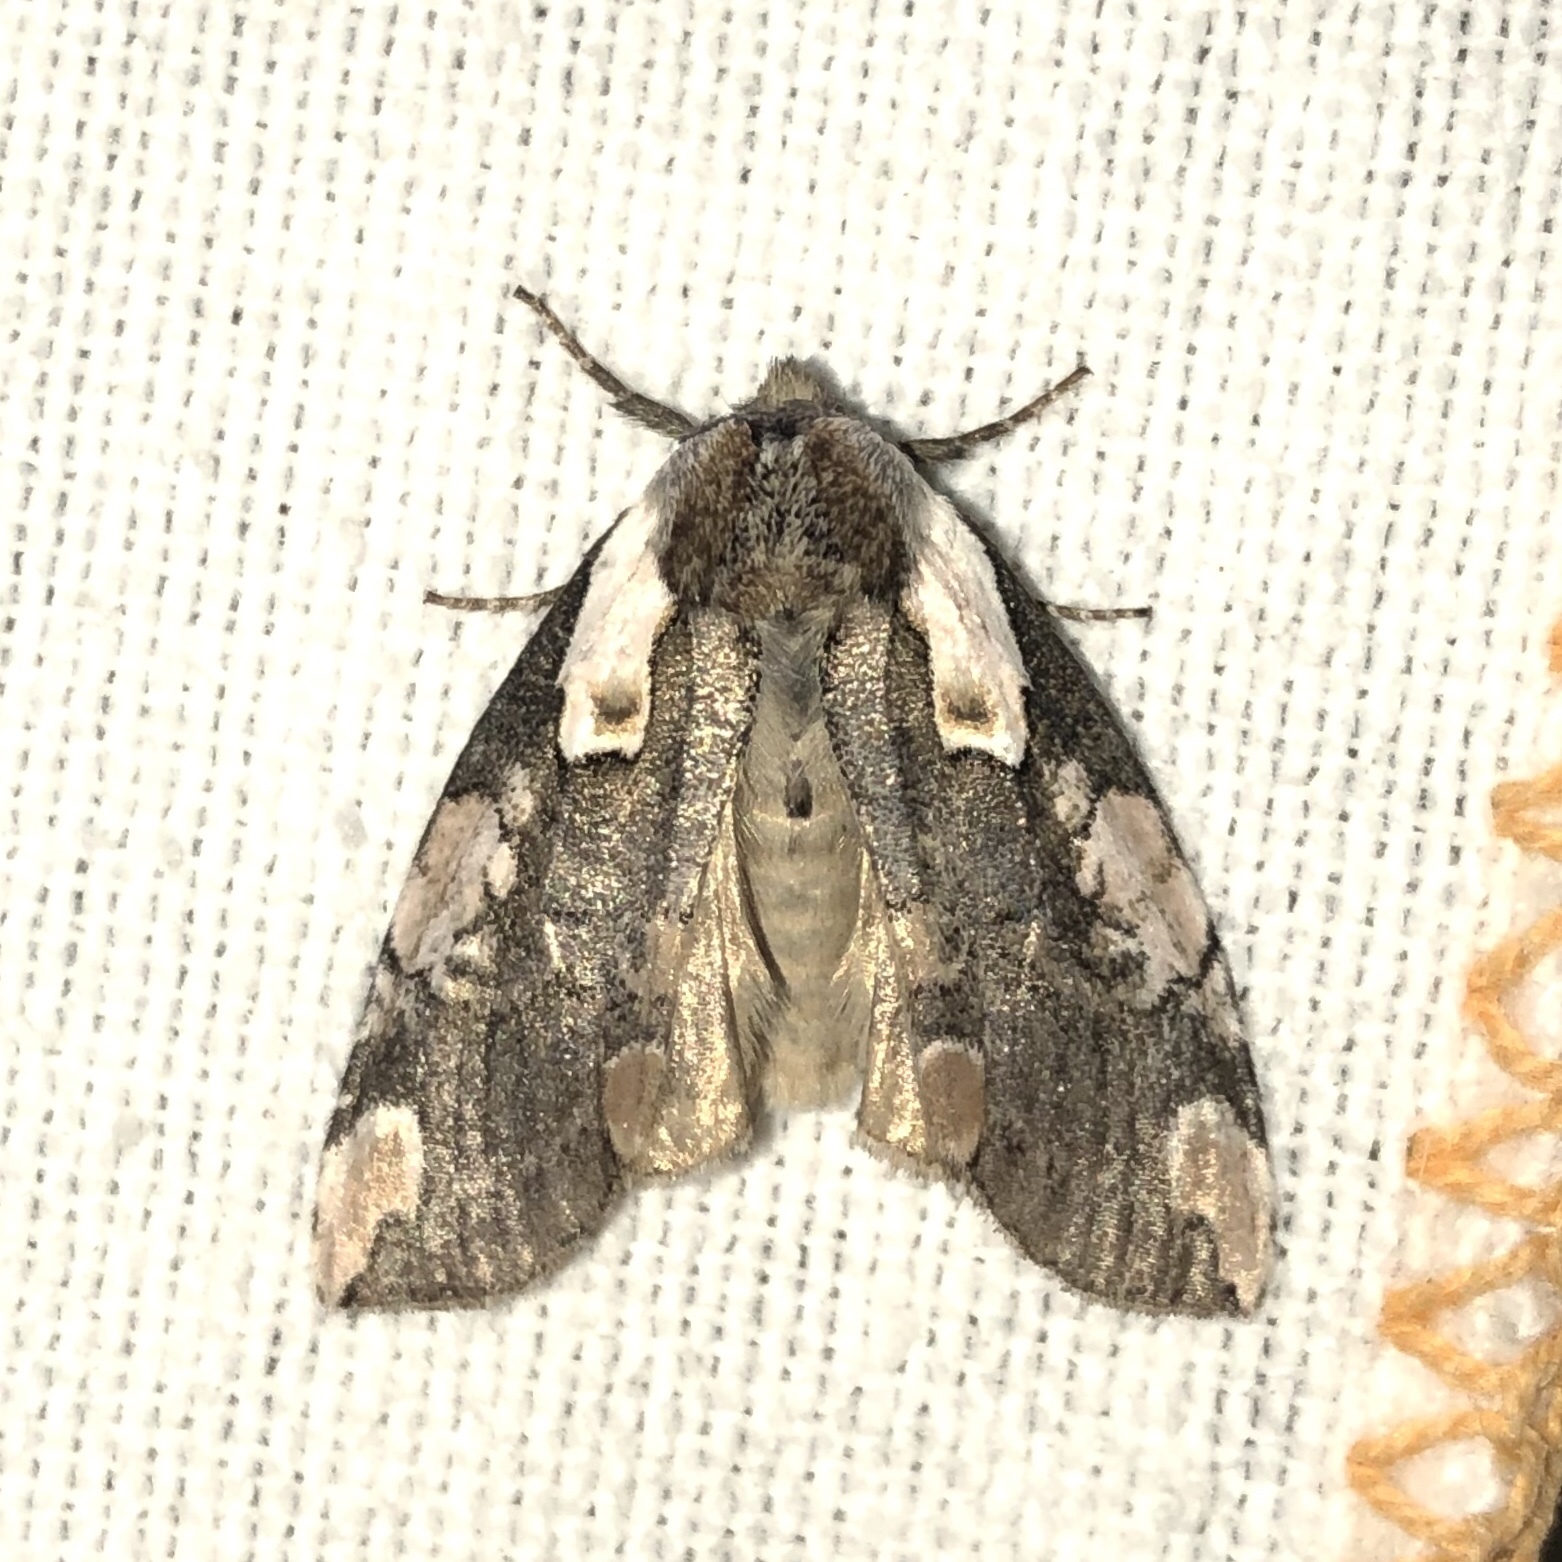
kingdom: Animalia
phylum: Arthropoda
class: Insecta
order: Lepidoptera
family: Drepanidae
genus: Euthyatira
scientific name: Euthyatira pudens
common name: Dogwood thyatirid moth
